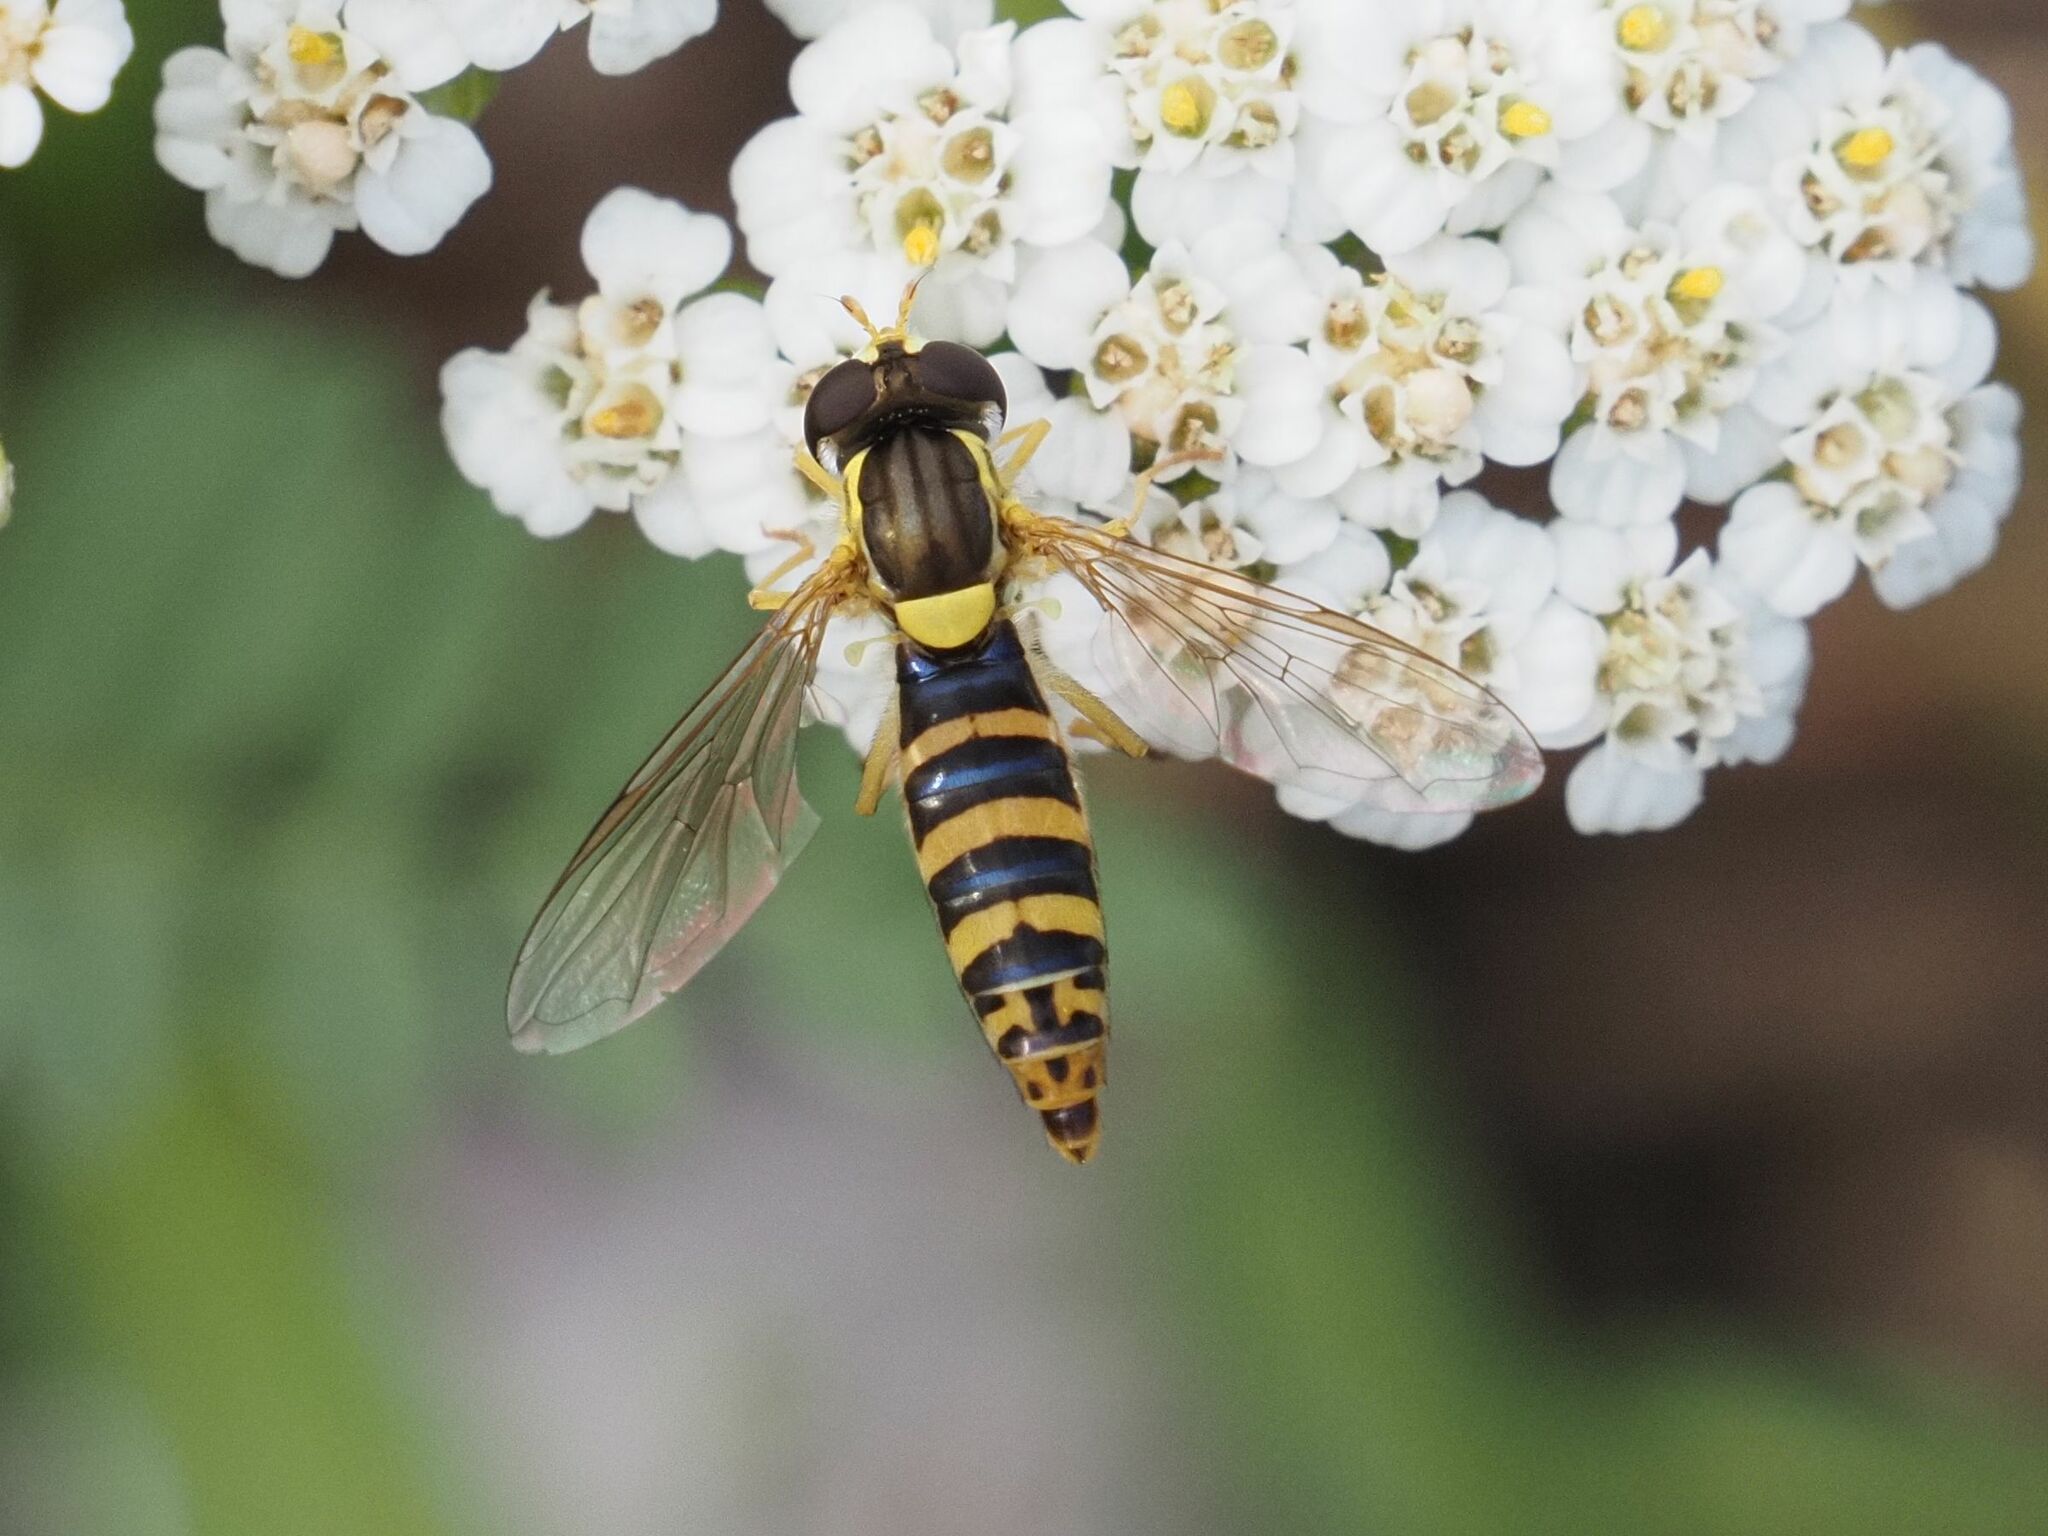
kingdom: Animalia
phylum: Arthropoda
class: Insecta
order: Diptera
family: Syrphidae
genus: Sphaerophoria
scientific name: Sphaerophoria
